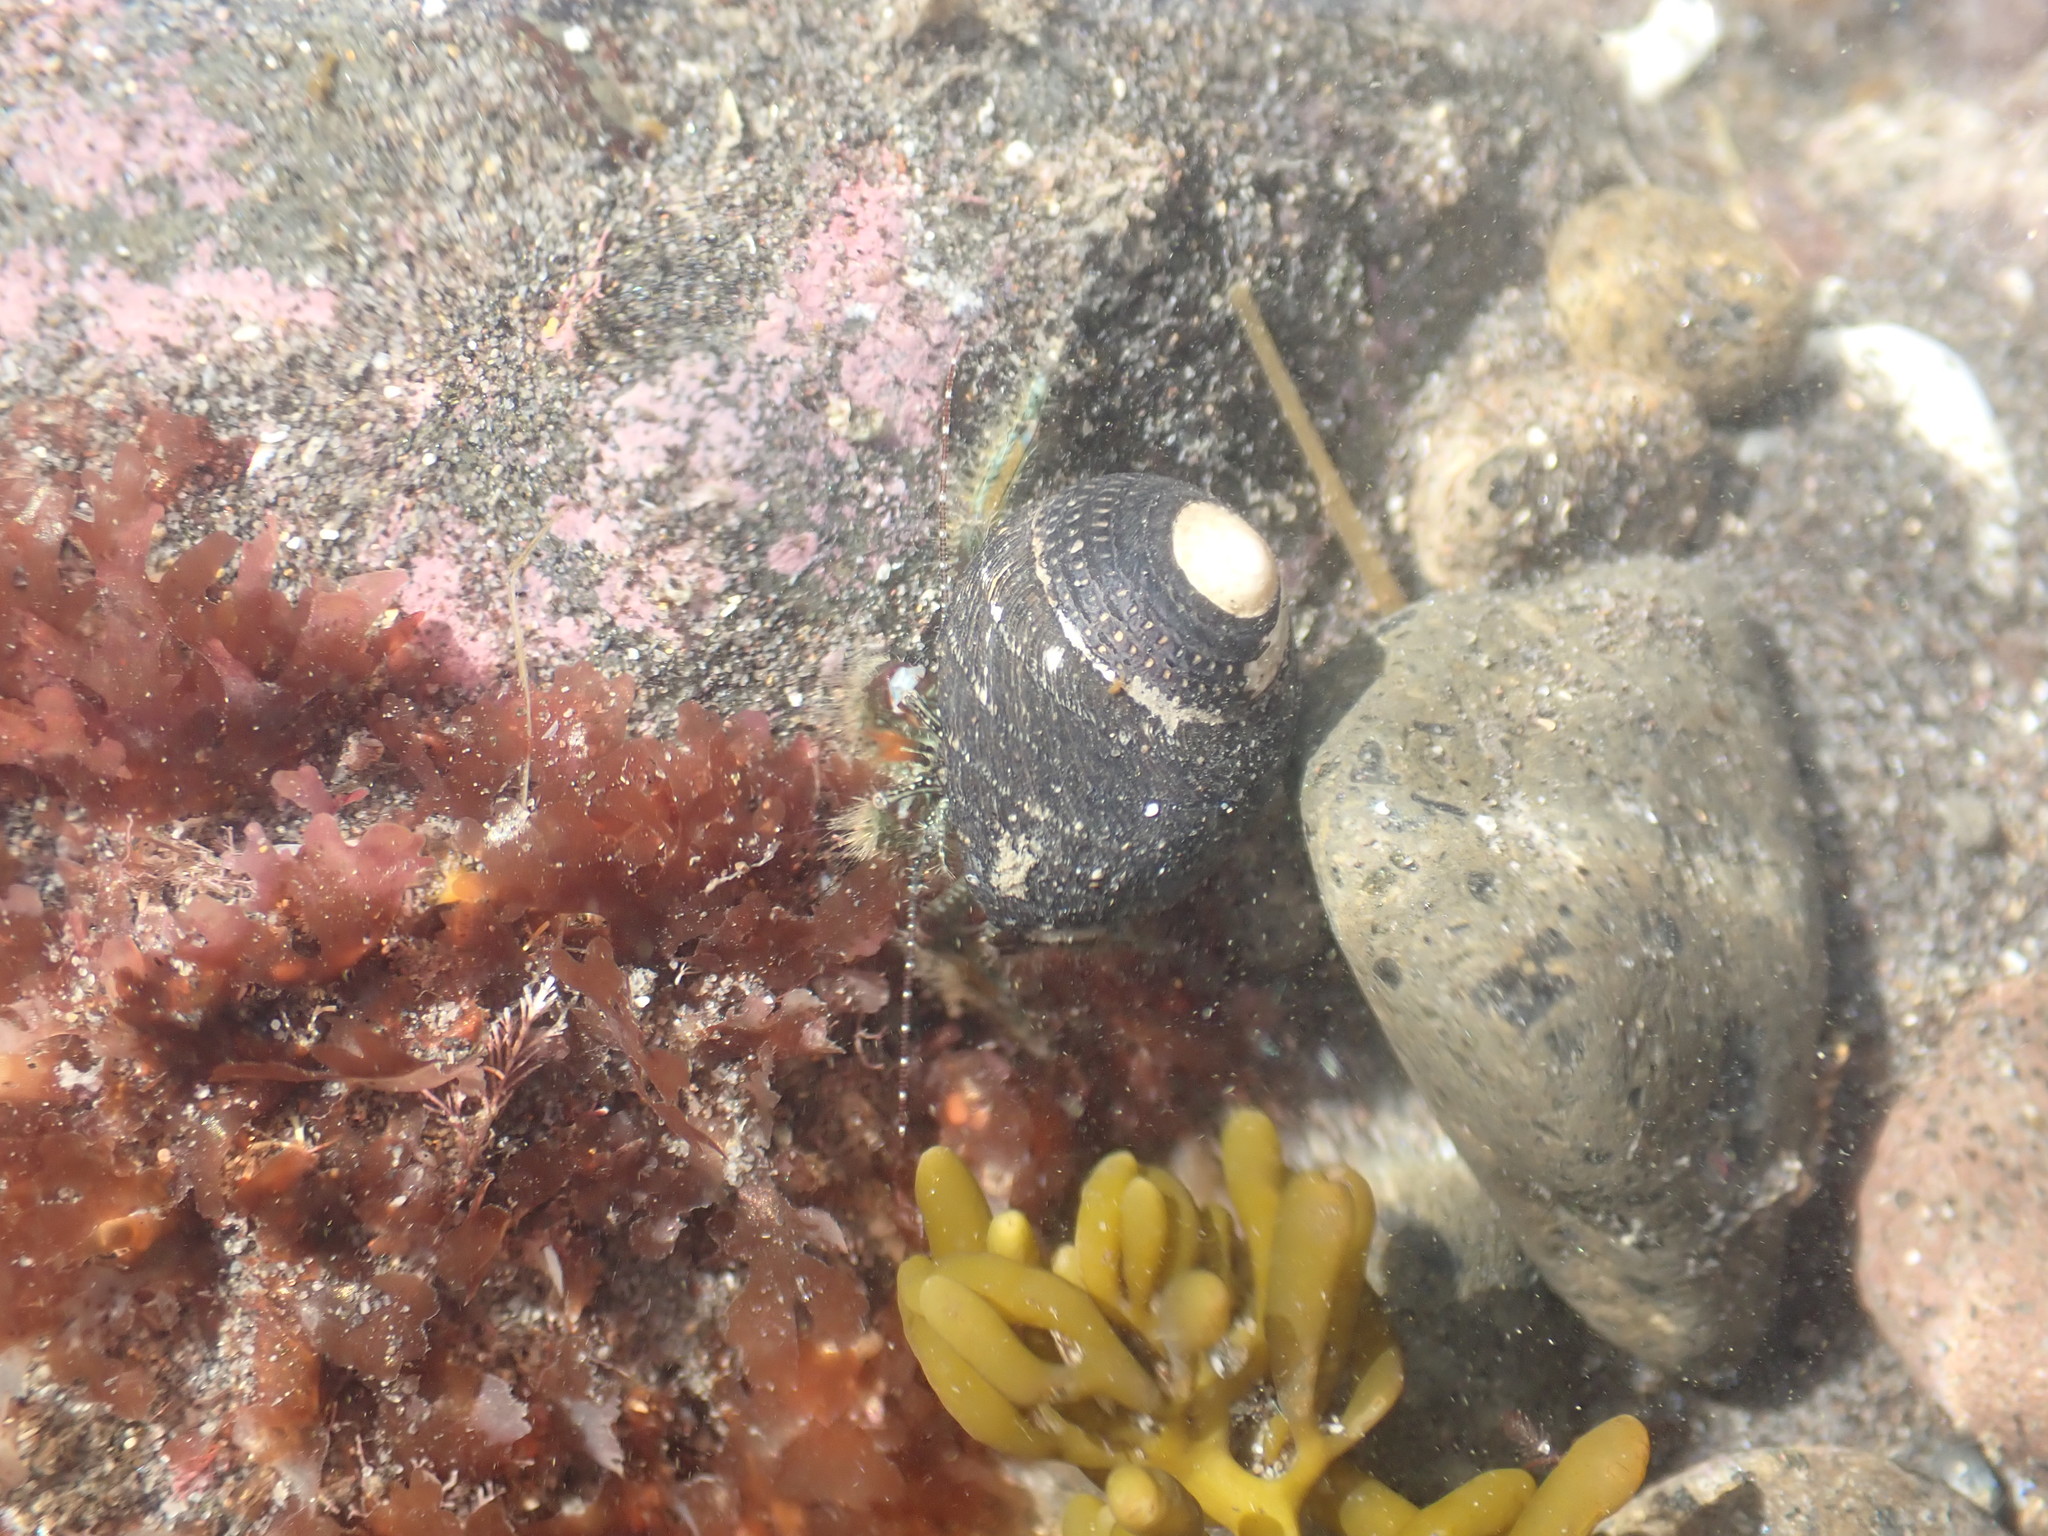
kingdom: Animalia
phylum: Arthropoda
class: Malacostraca
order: Decapoda
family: Paguridae
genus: Pagurus
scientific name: Pagurus traversi
